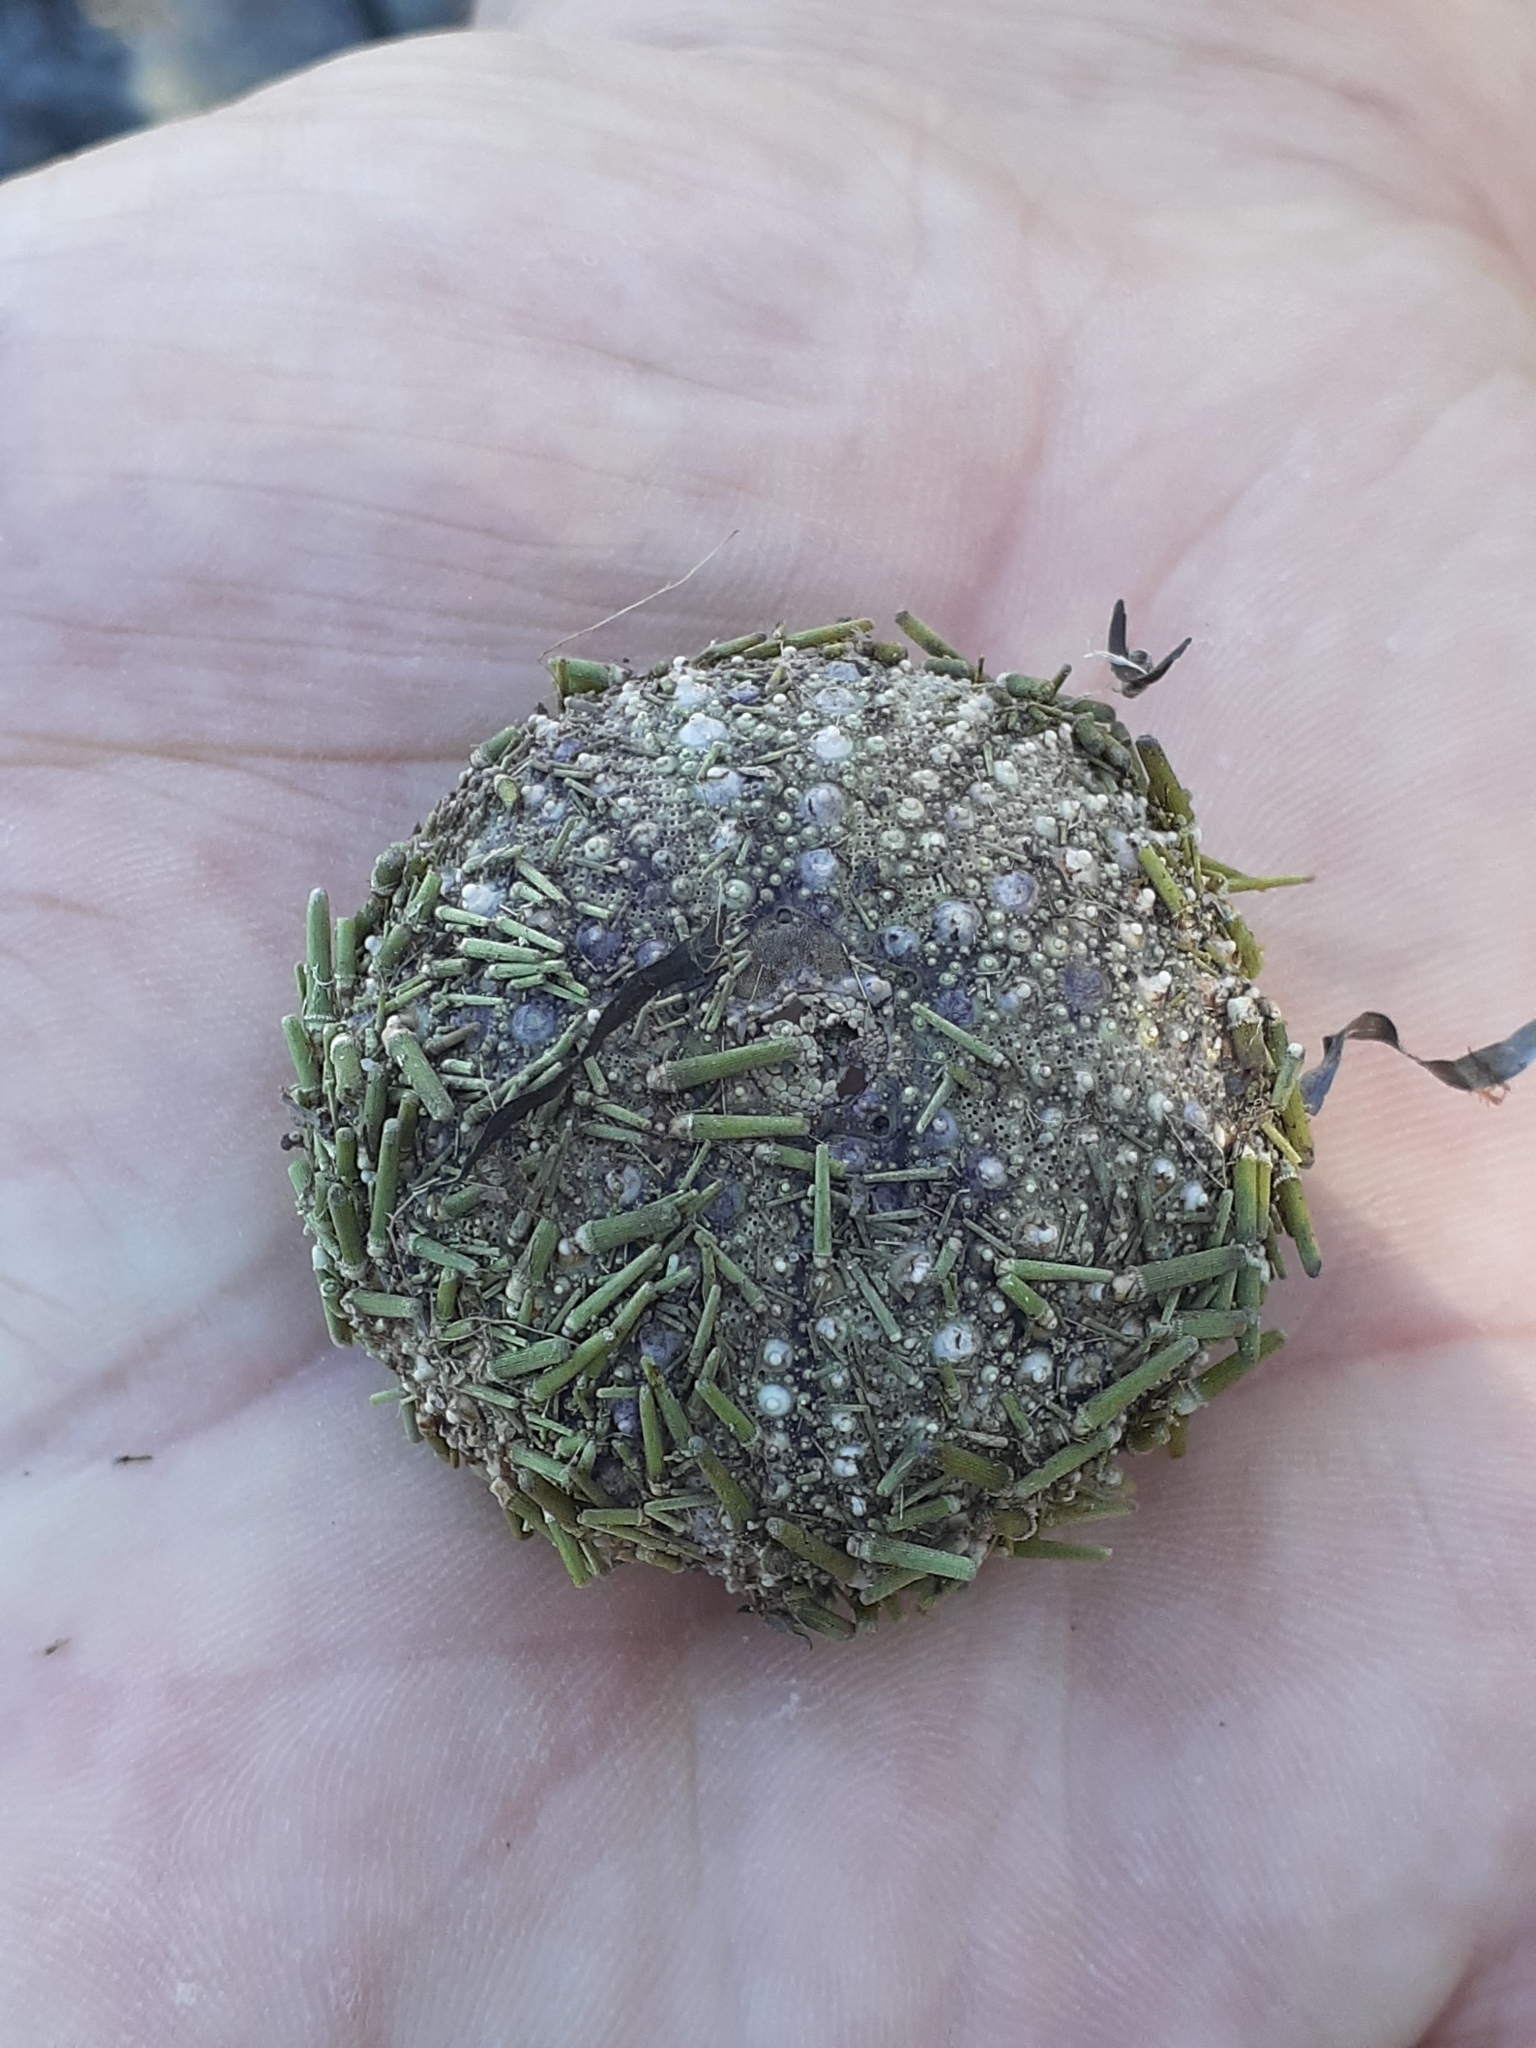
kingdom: Animalia
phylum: Echinodermata
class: Echinoidea
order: Camarodonta
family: Strongylocentrotidae
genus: Strongylocentrotus
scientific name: Strongylocentrotus droebachiensis
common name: Northern sea urchin
